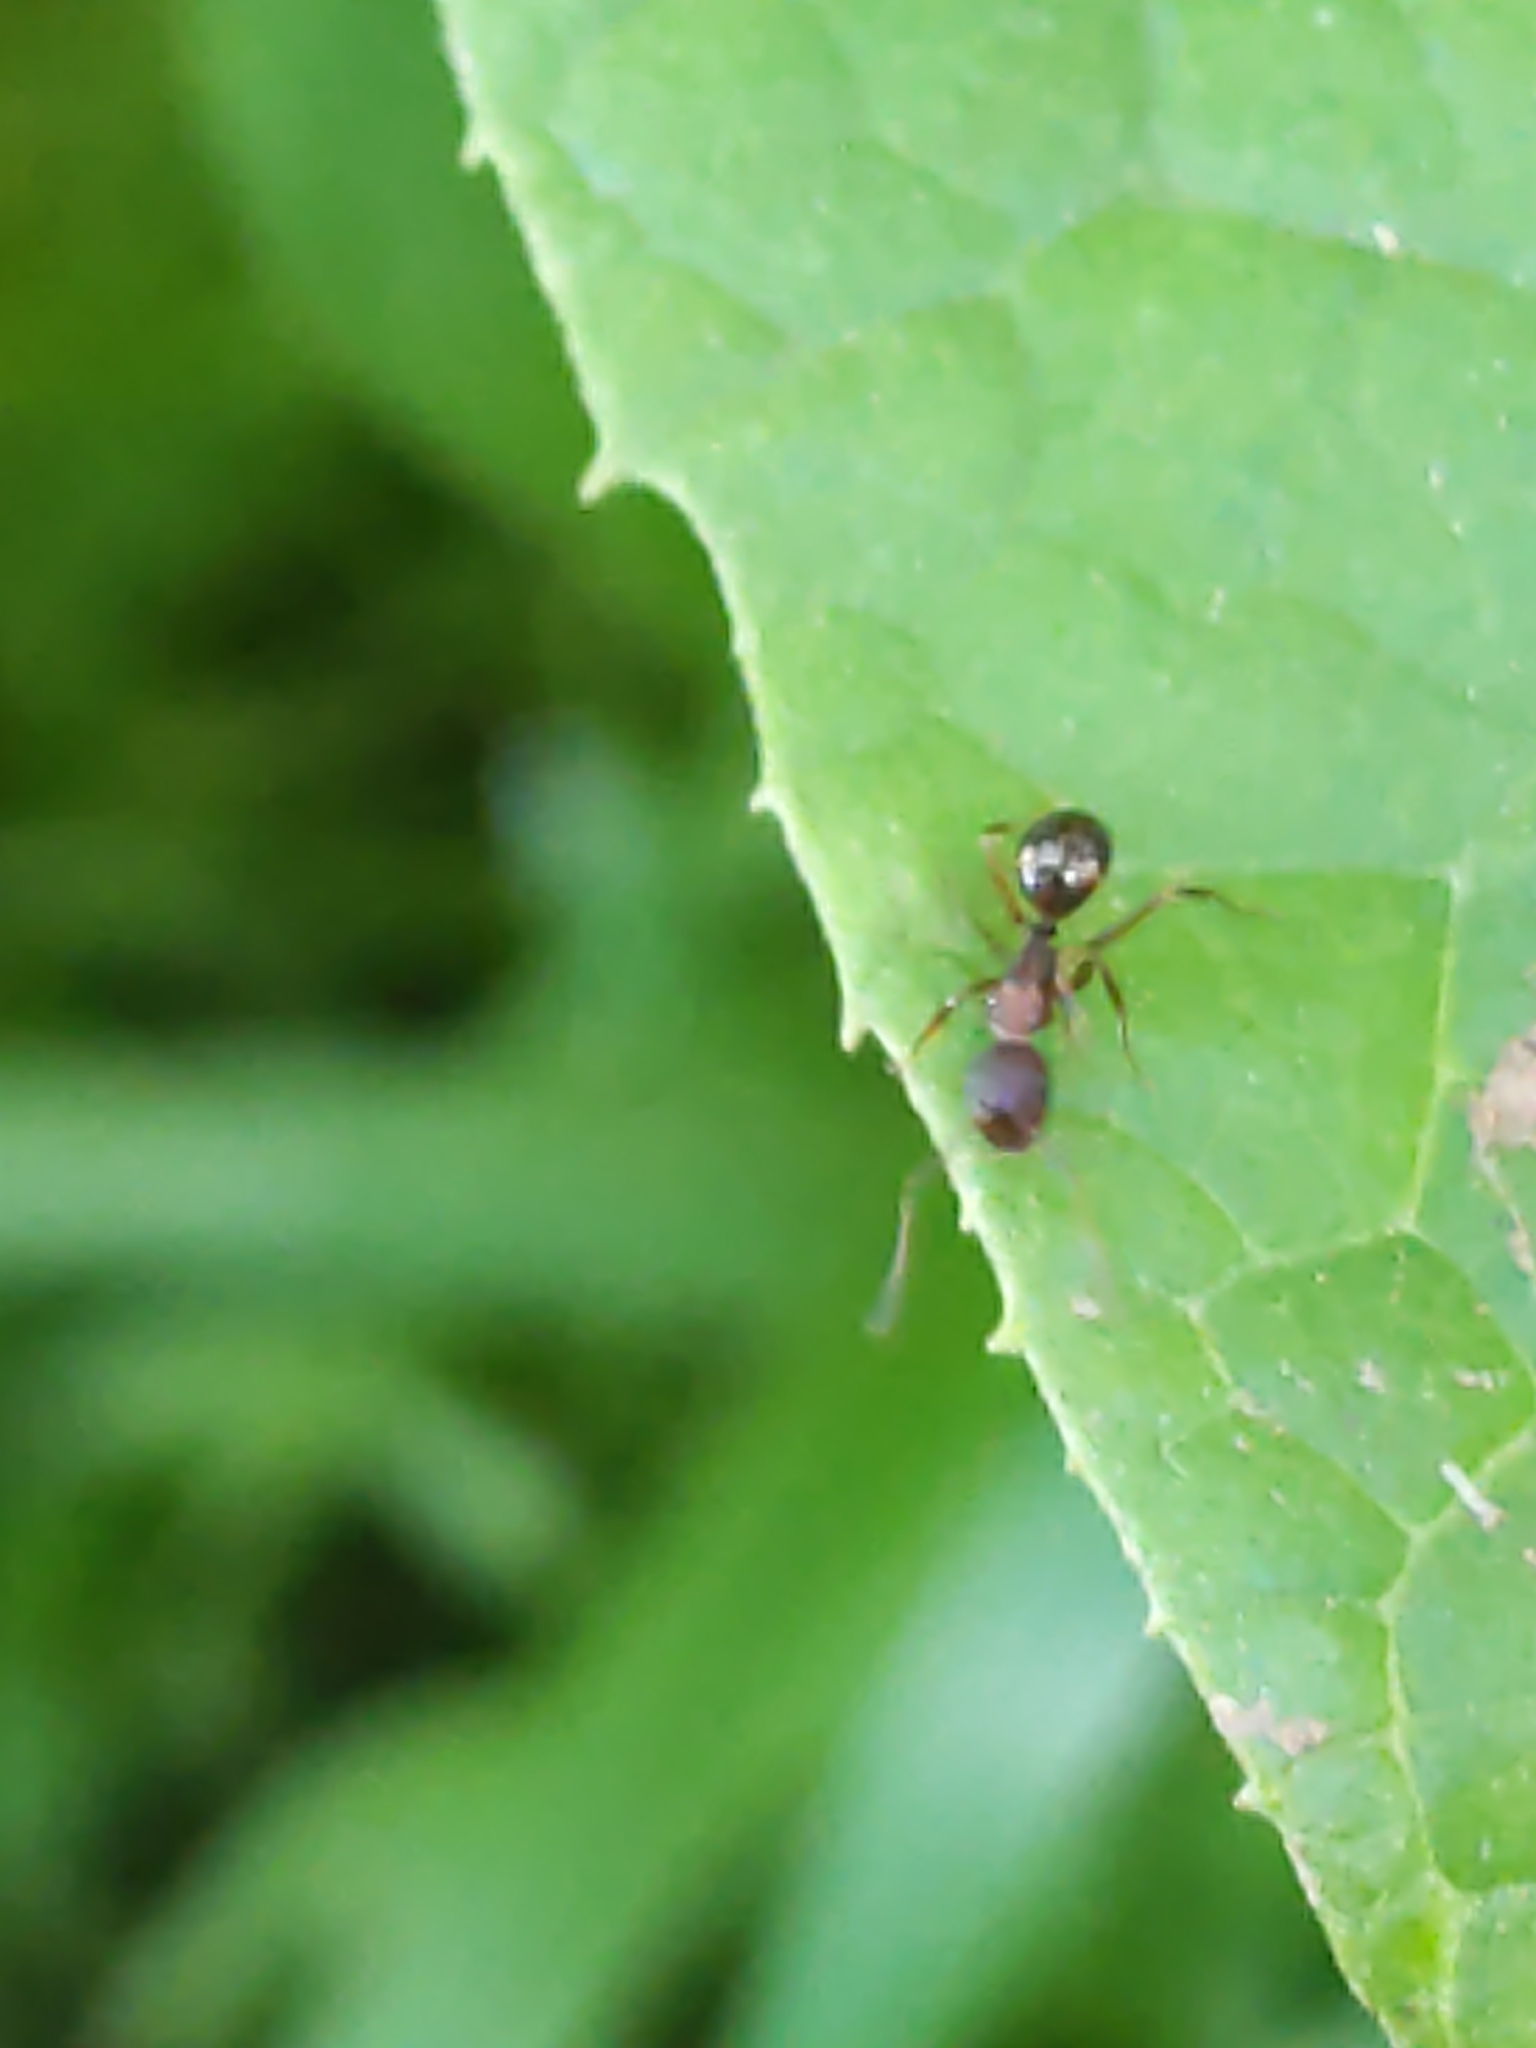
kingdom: Animalia
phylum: Arthropoda
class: Insecta
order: Hymenoptera
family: Formicidae
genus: Myrmentoma
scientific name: Myrmentoma
